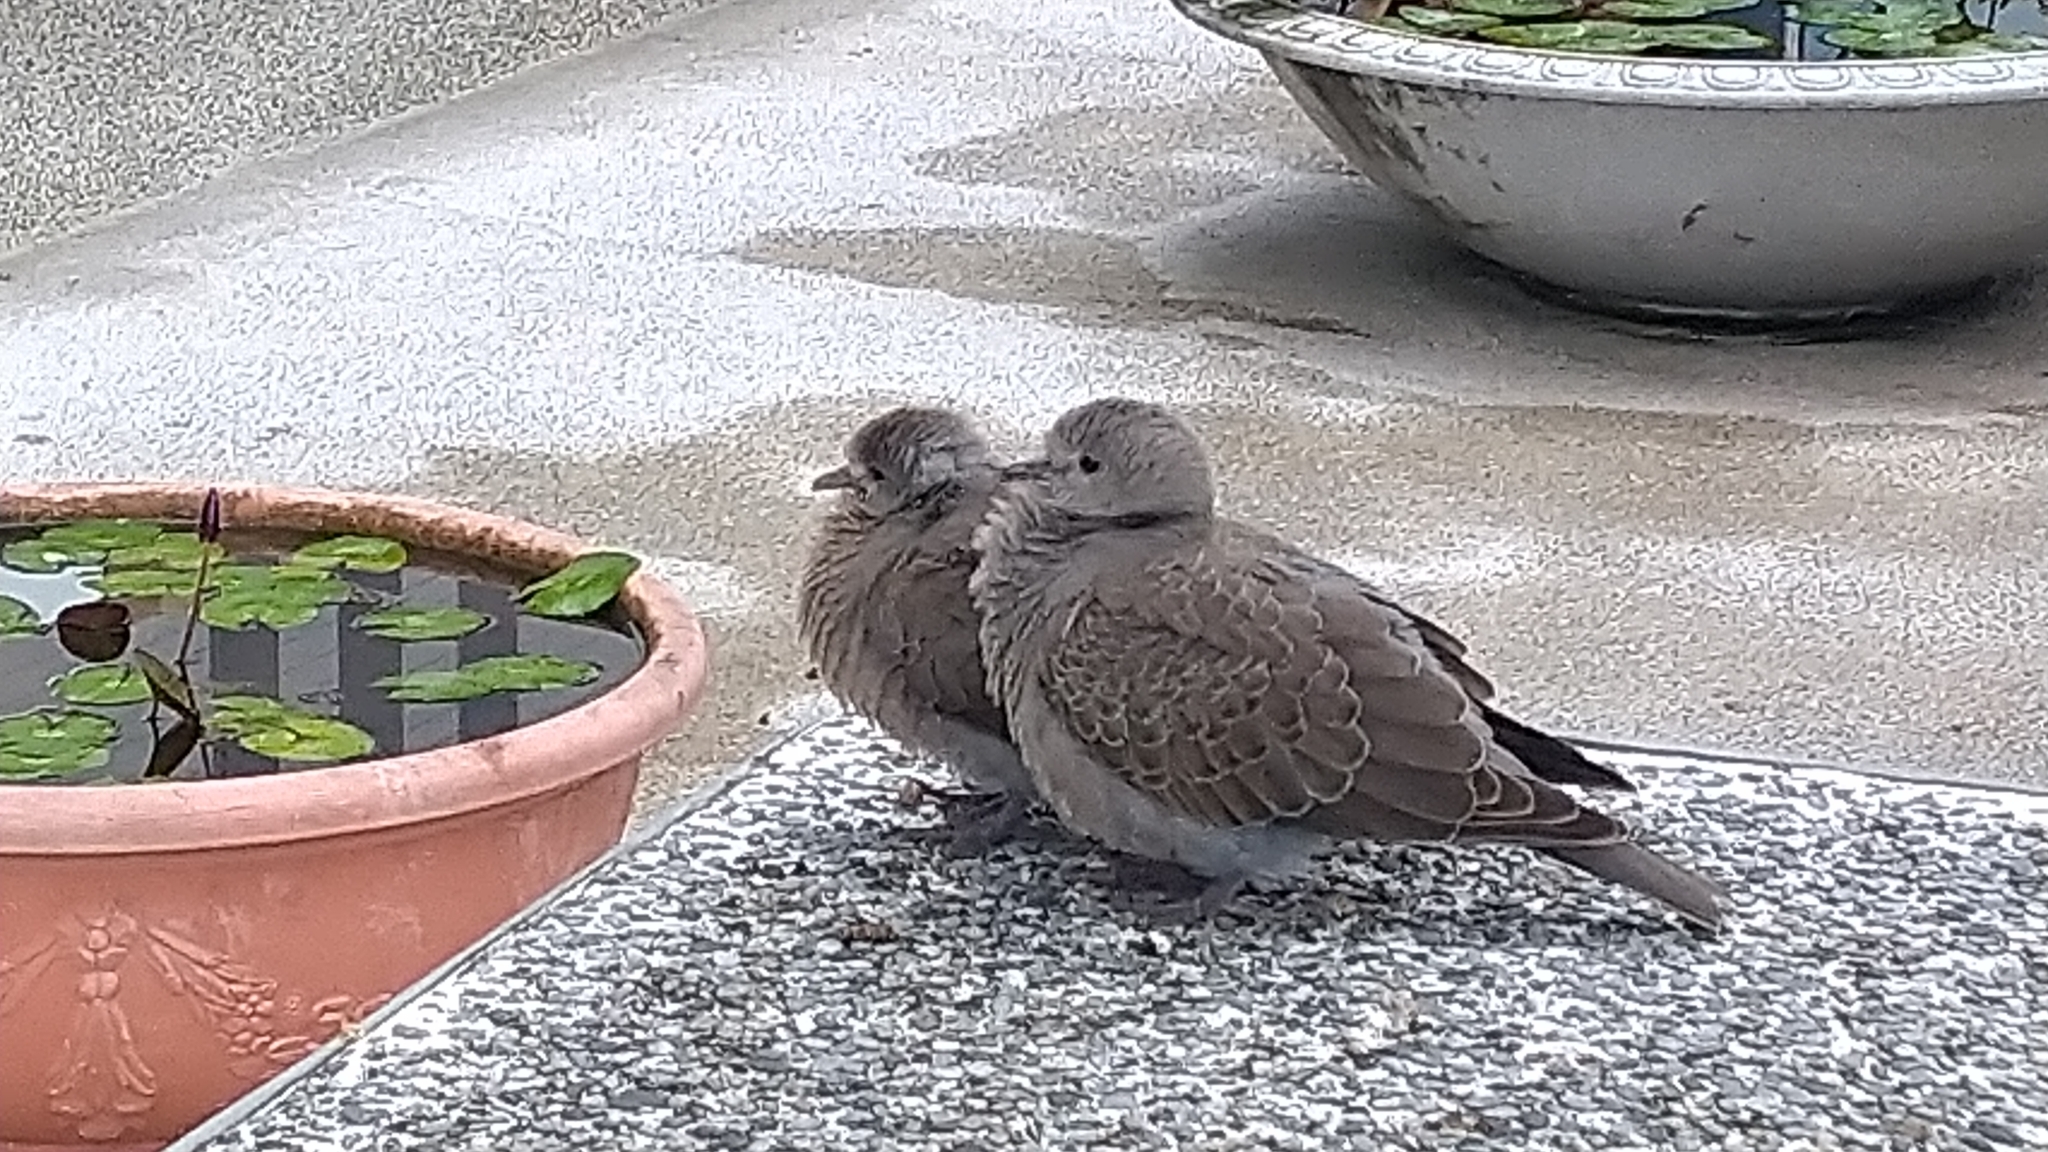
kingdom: Animalia
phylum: Chordata
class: Aves
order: Columbiformes
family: Columbidae
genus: Streptopelia
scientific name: Streptopelia tranquebarica
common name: Red turtle dove
